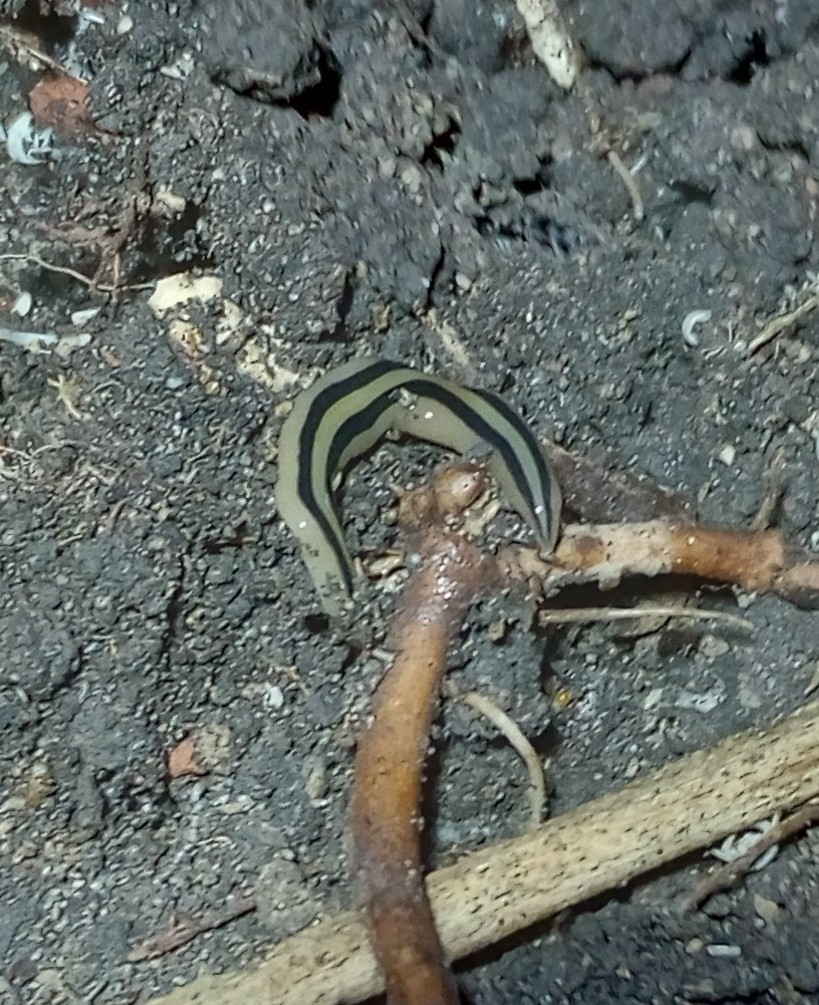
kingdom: Animalia
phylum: Platyhelminthes
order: Tricladida
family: Geoplanidae
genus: Winsoria
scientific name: Winsoria bipatria
